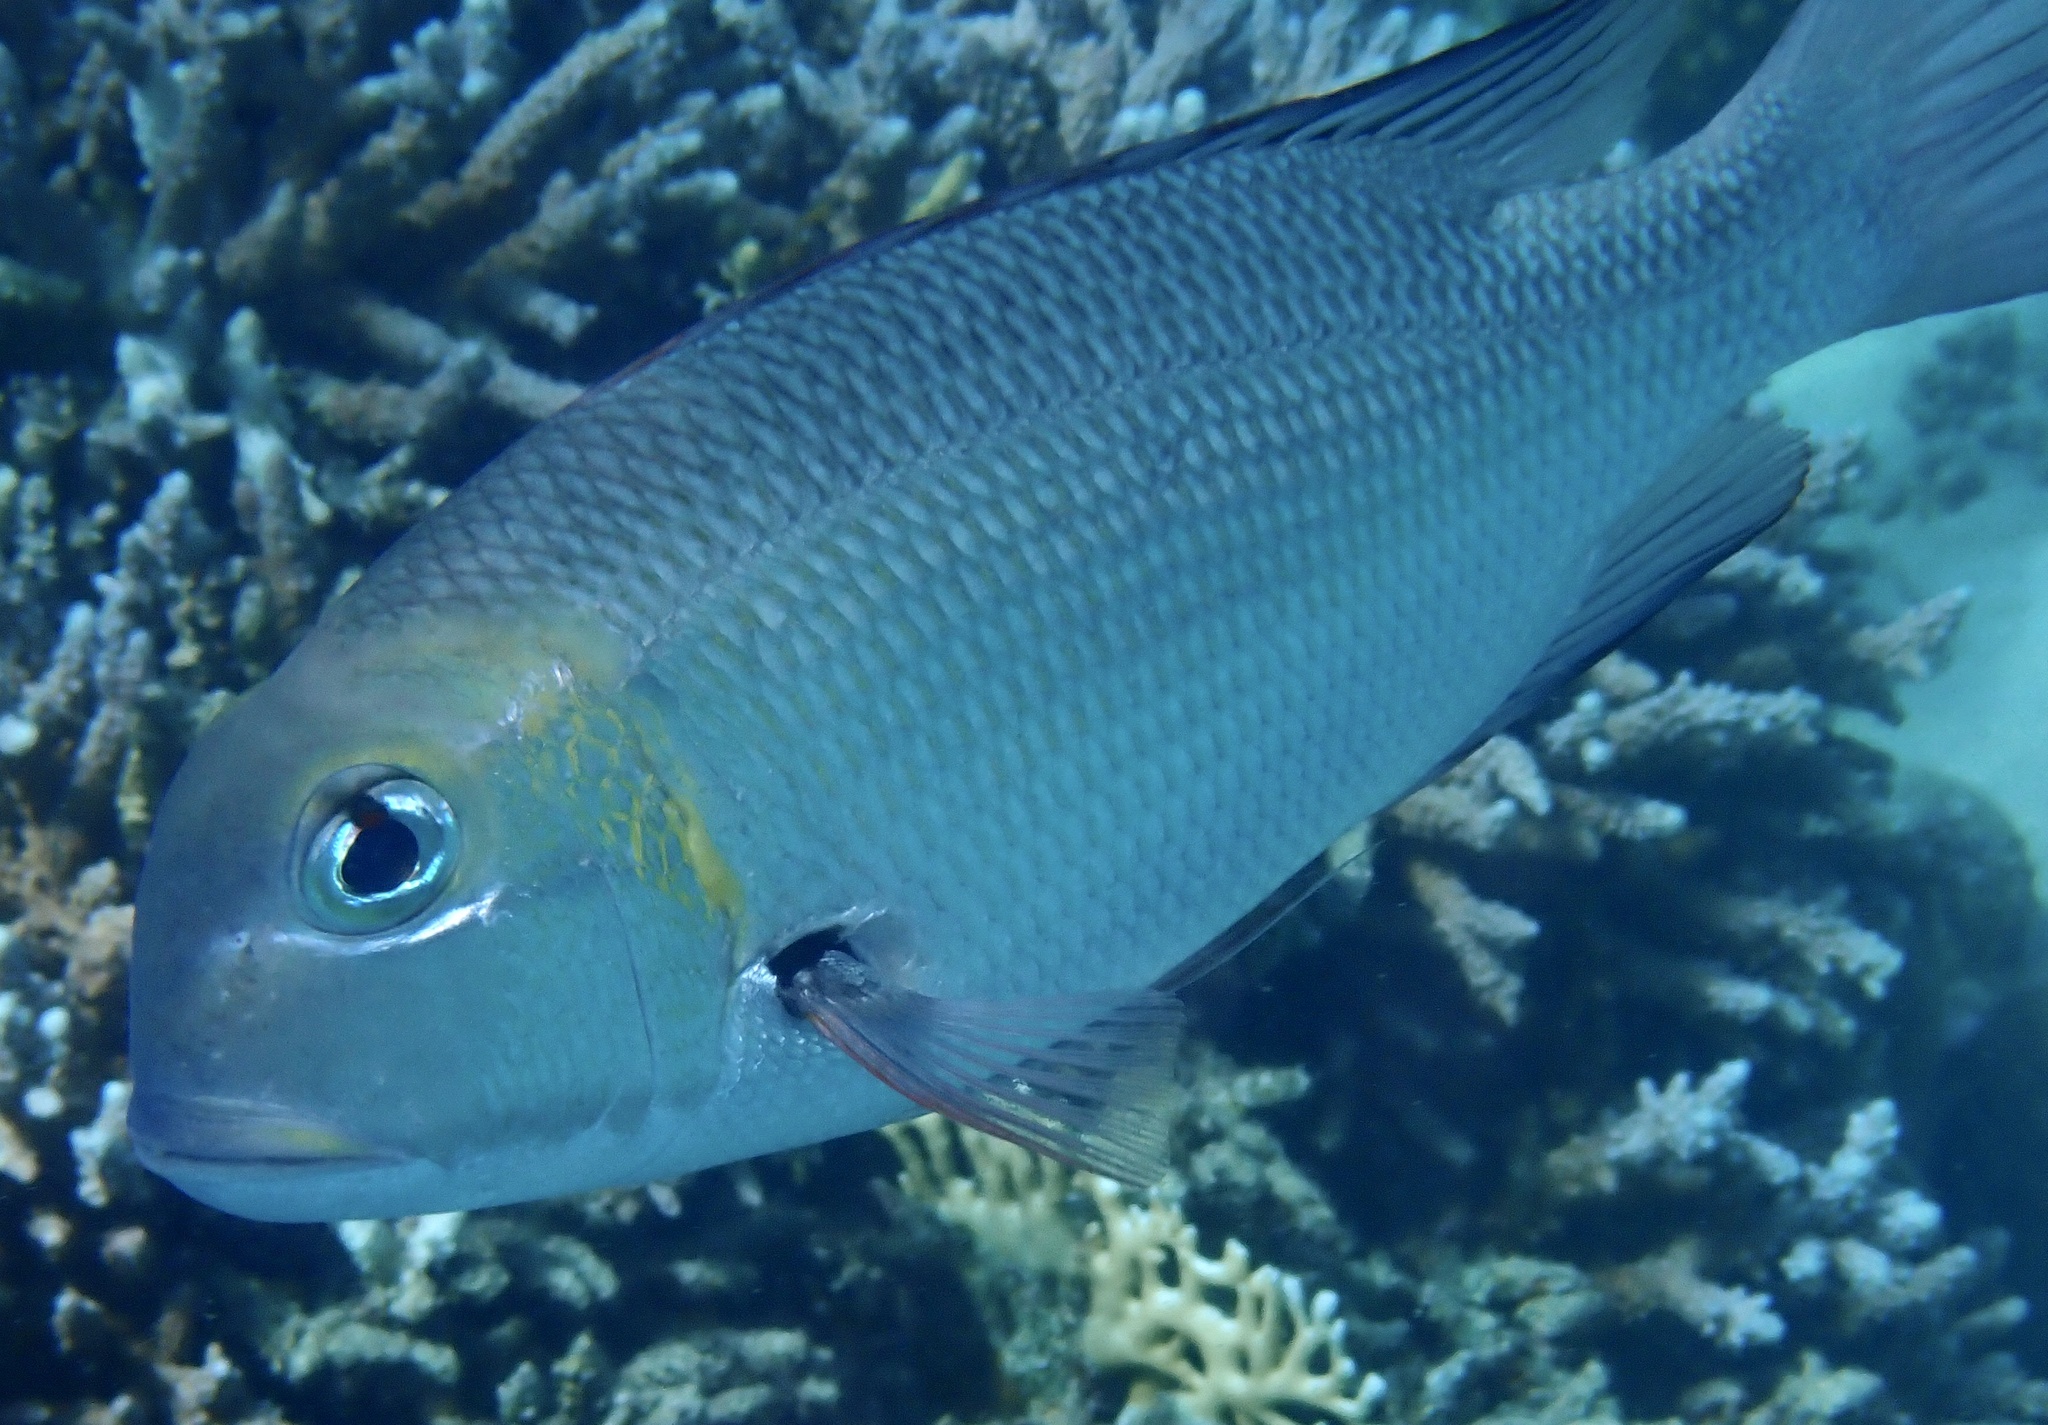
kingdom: Animalia
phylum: Chordata
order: Perciformes
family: Lethrinidae
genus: Monotaxis
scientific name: Monotaxis grandoculis
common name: Bigeye emperor
